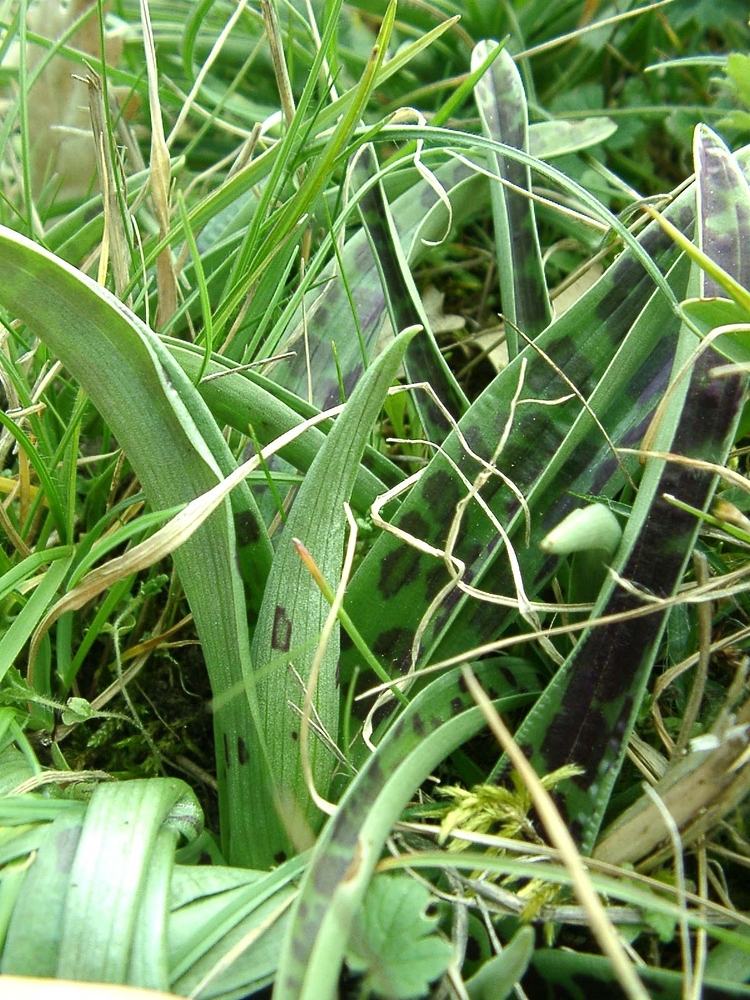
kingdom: Plantae
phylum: Tracheophyta
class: Liliopsida
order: Asparagales
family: Orchidaceae
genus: Orchis
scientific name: Orchis mascula
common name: Early-purple orchid
